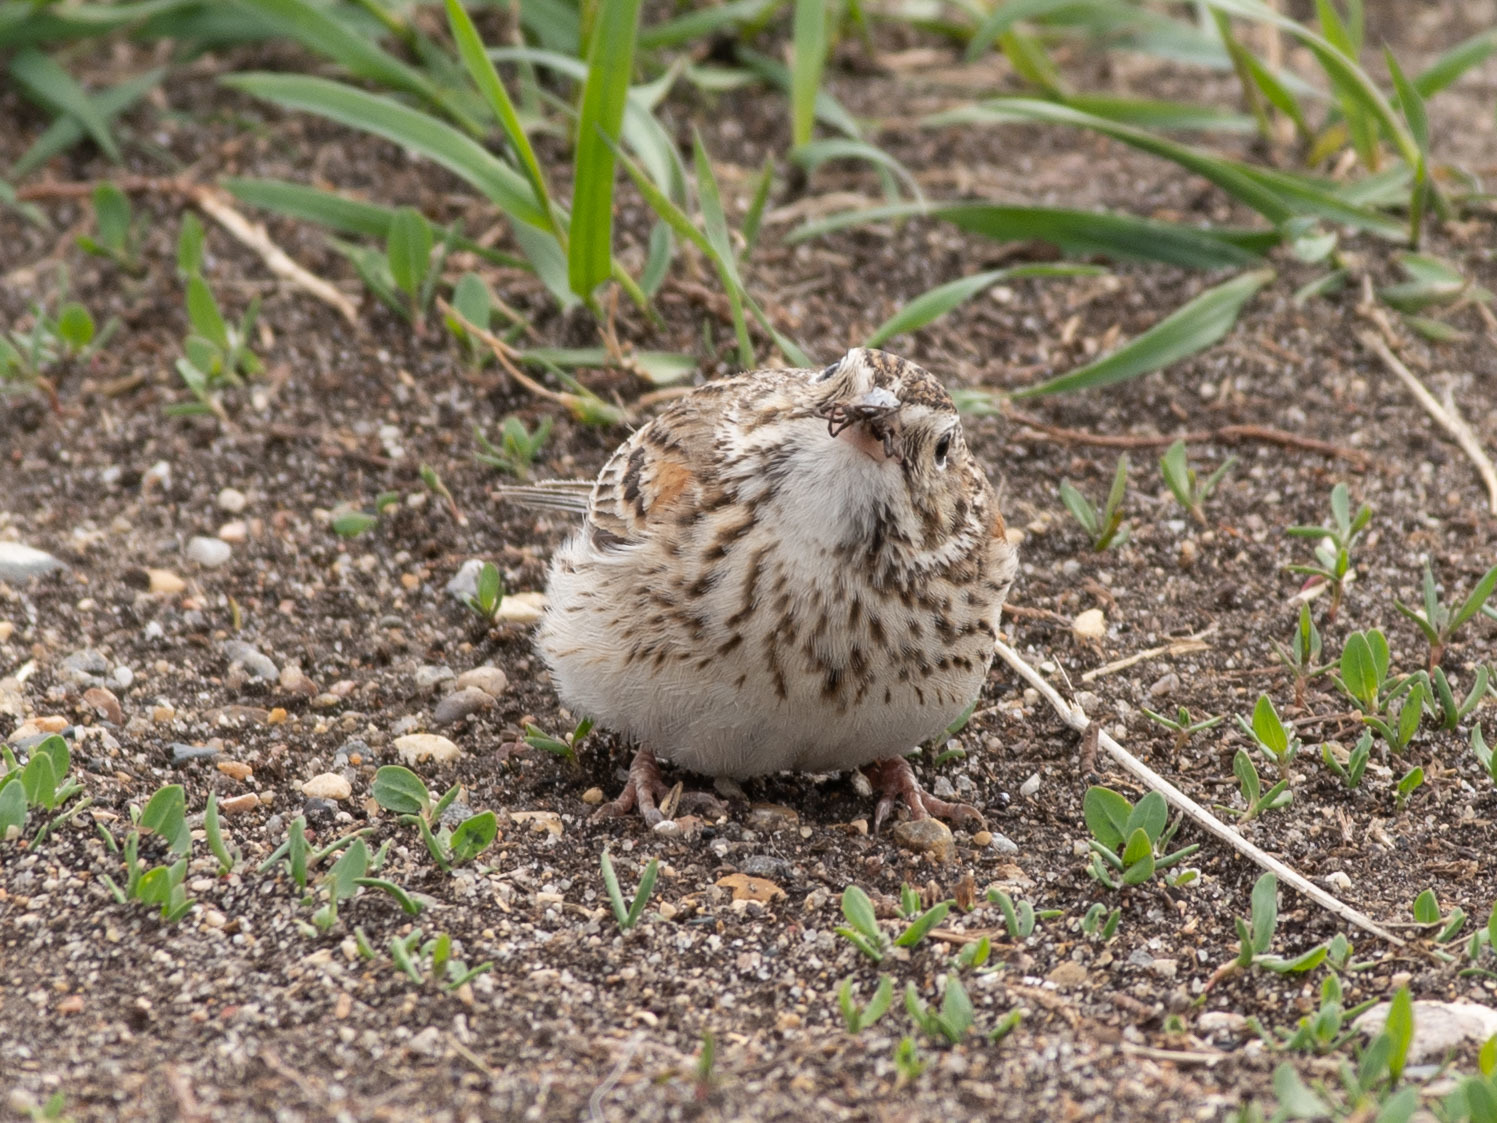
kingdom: Animalia
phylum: Chordata
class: Aves
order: Passeriformes
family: Passerellidae
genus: Pooecetes
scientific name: Pooecetes gramineus
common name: Vesper sparrow
